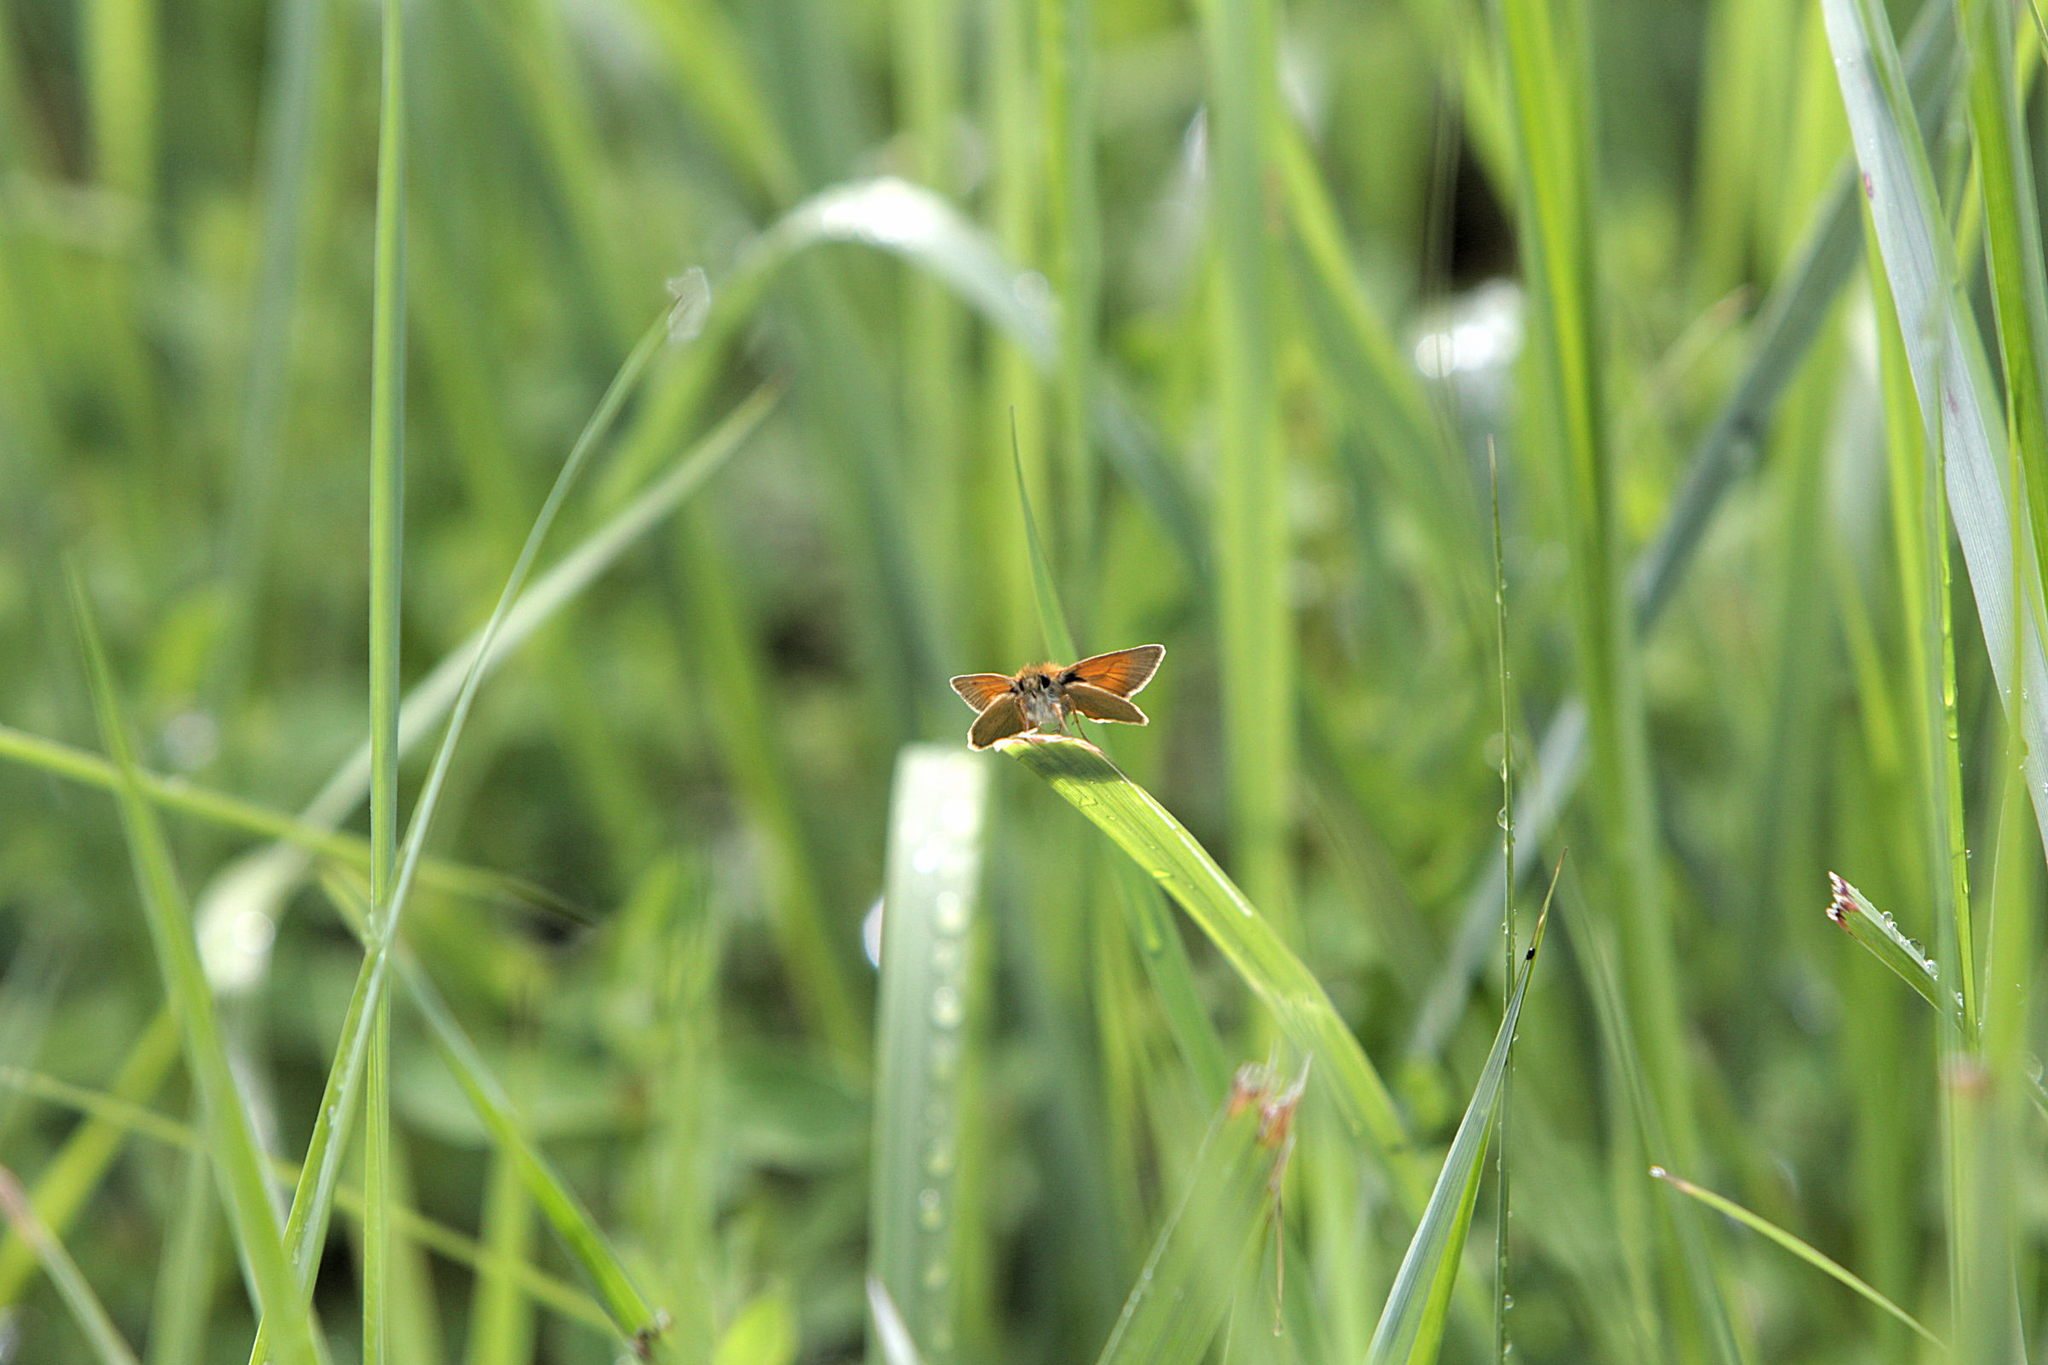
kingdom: Animalia
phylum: Arthropoda
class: Insecta
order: Lepidoptera
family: Hesperiidae
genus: Thymelicus
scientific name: Thymelicus sylvestris
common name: Small skipper
